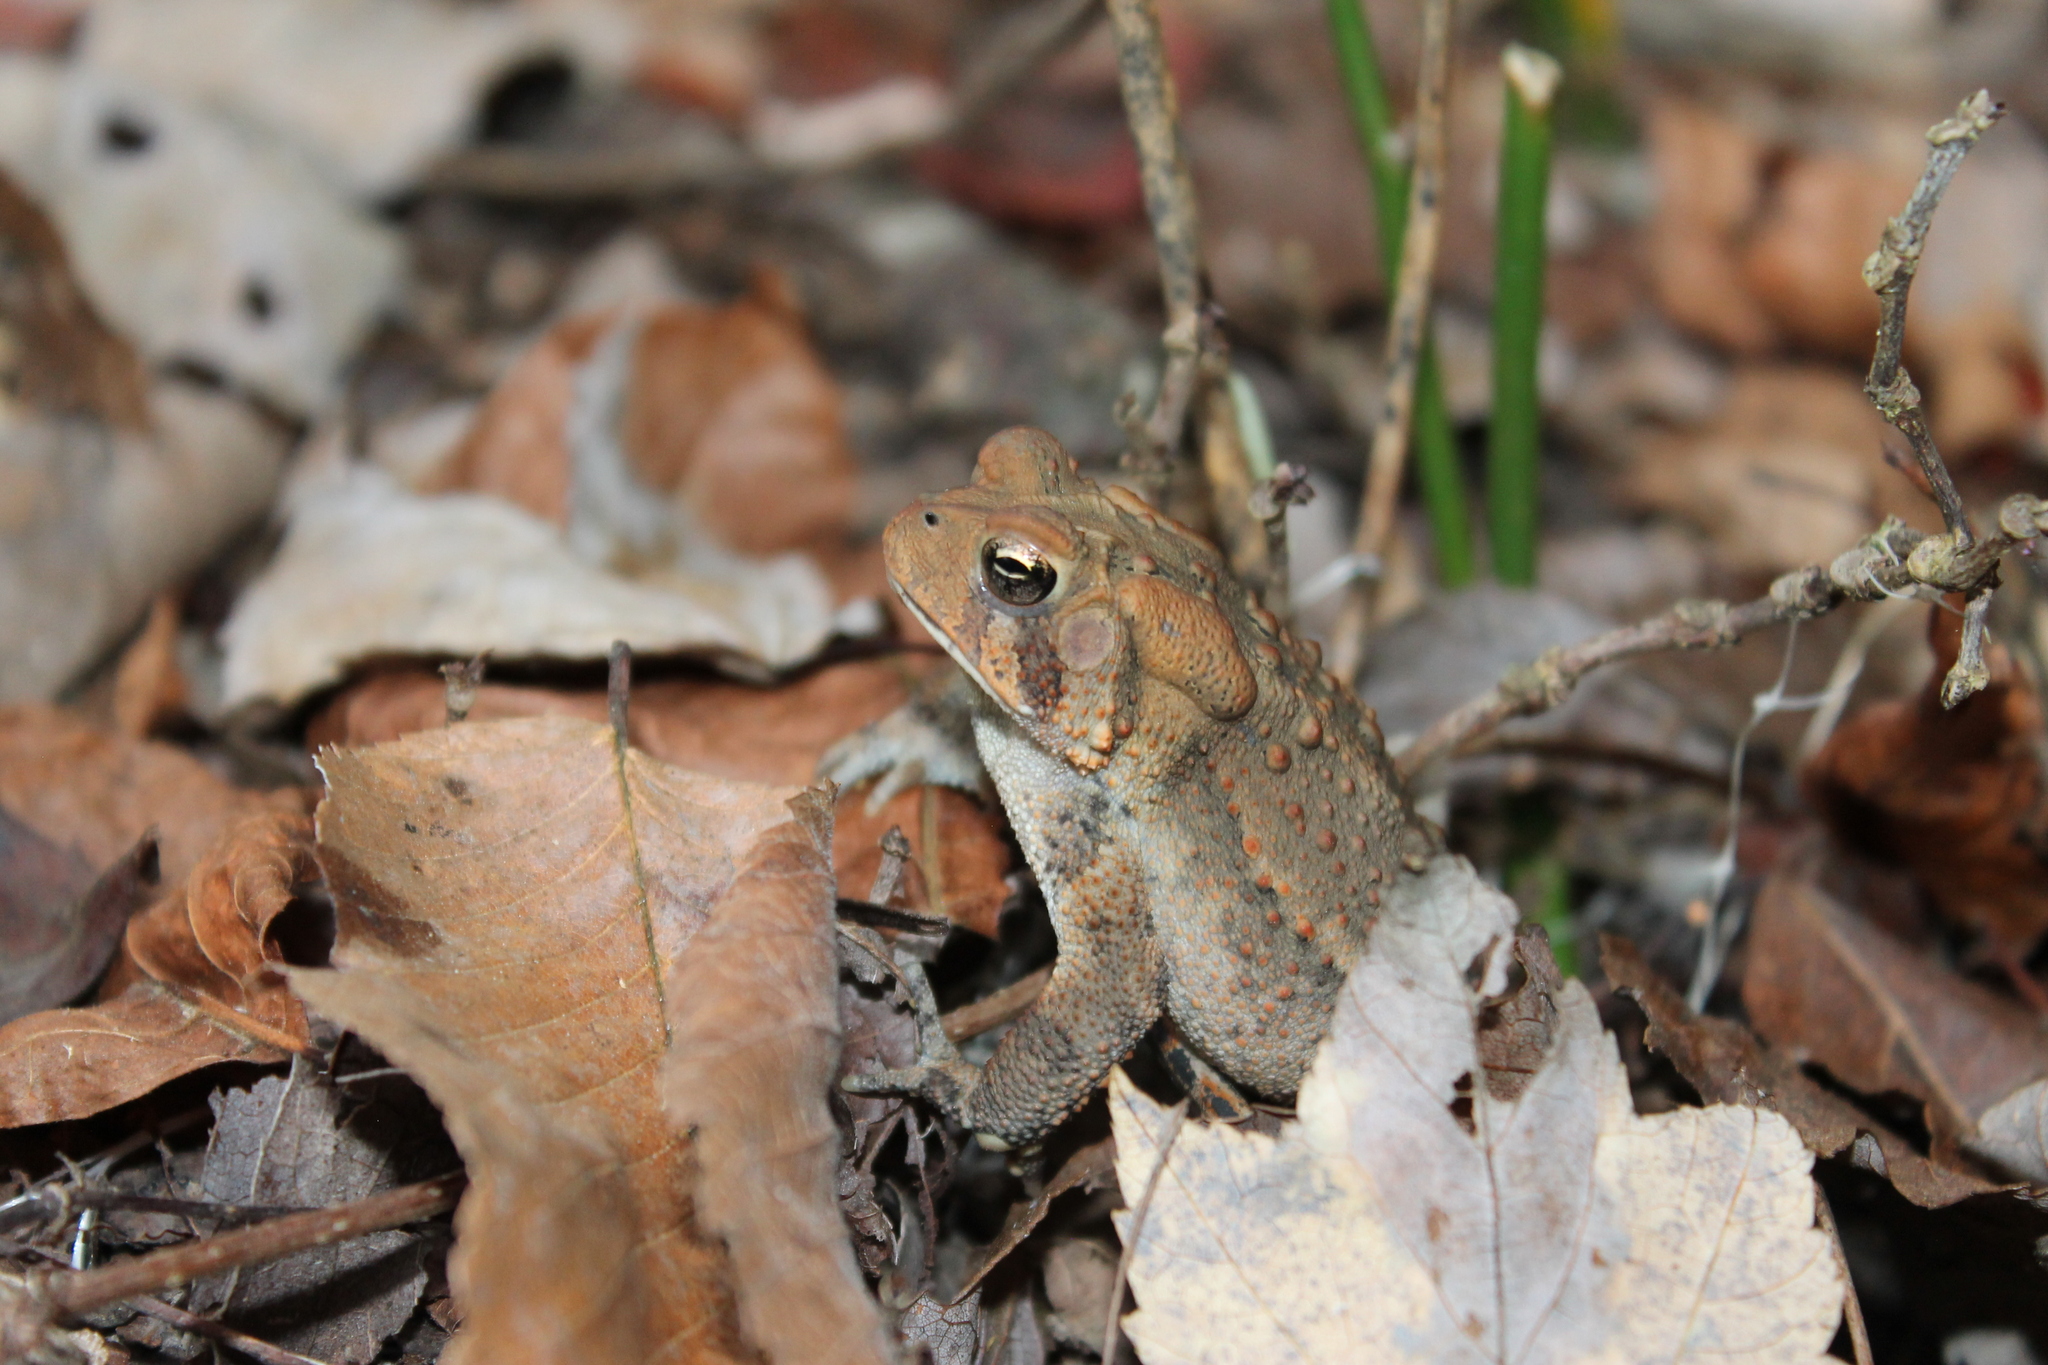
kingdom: Animalia
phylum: Chordata
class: Amphibia
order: Anura
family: Bufonidae
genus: Anaxyrus
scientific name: Anaxyrus americanus
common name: American toad
